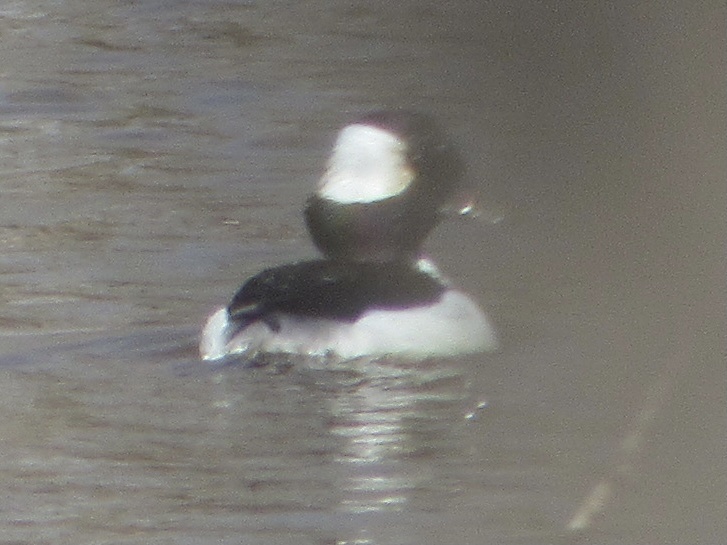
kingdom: Animalia
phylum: Chordata
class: Aves
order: Anseriformes
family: Anatidae
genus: Bucephala
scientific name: Bucephala albeola
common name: Bufflehead
